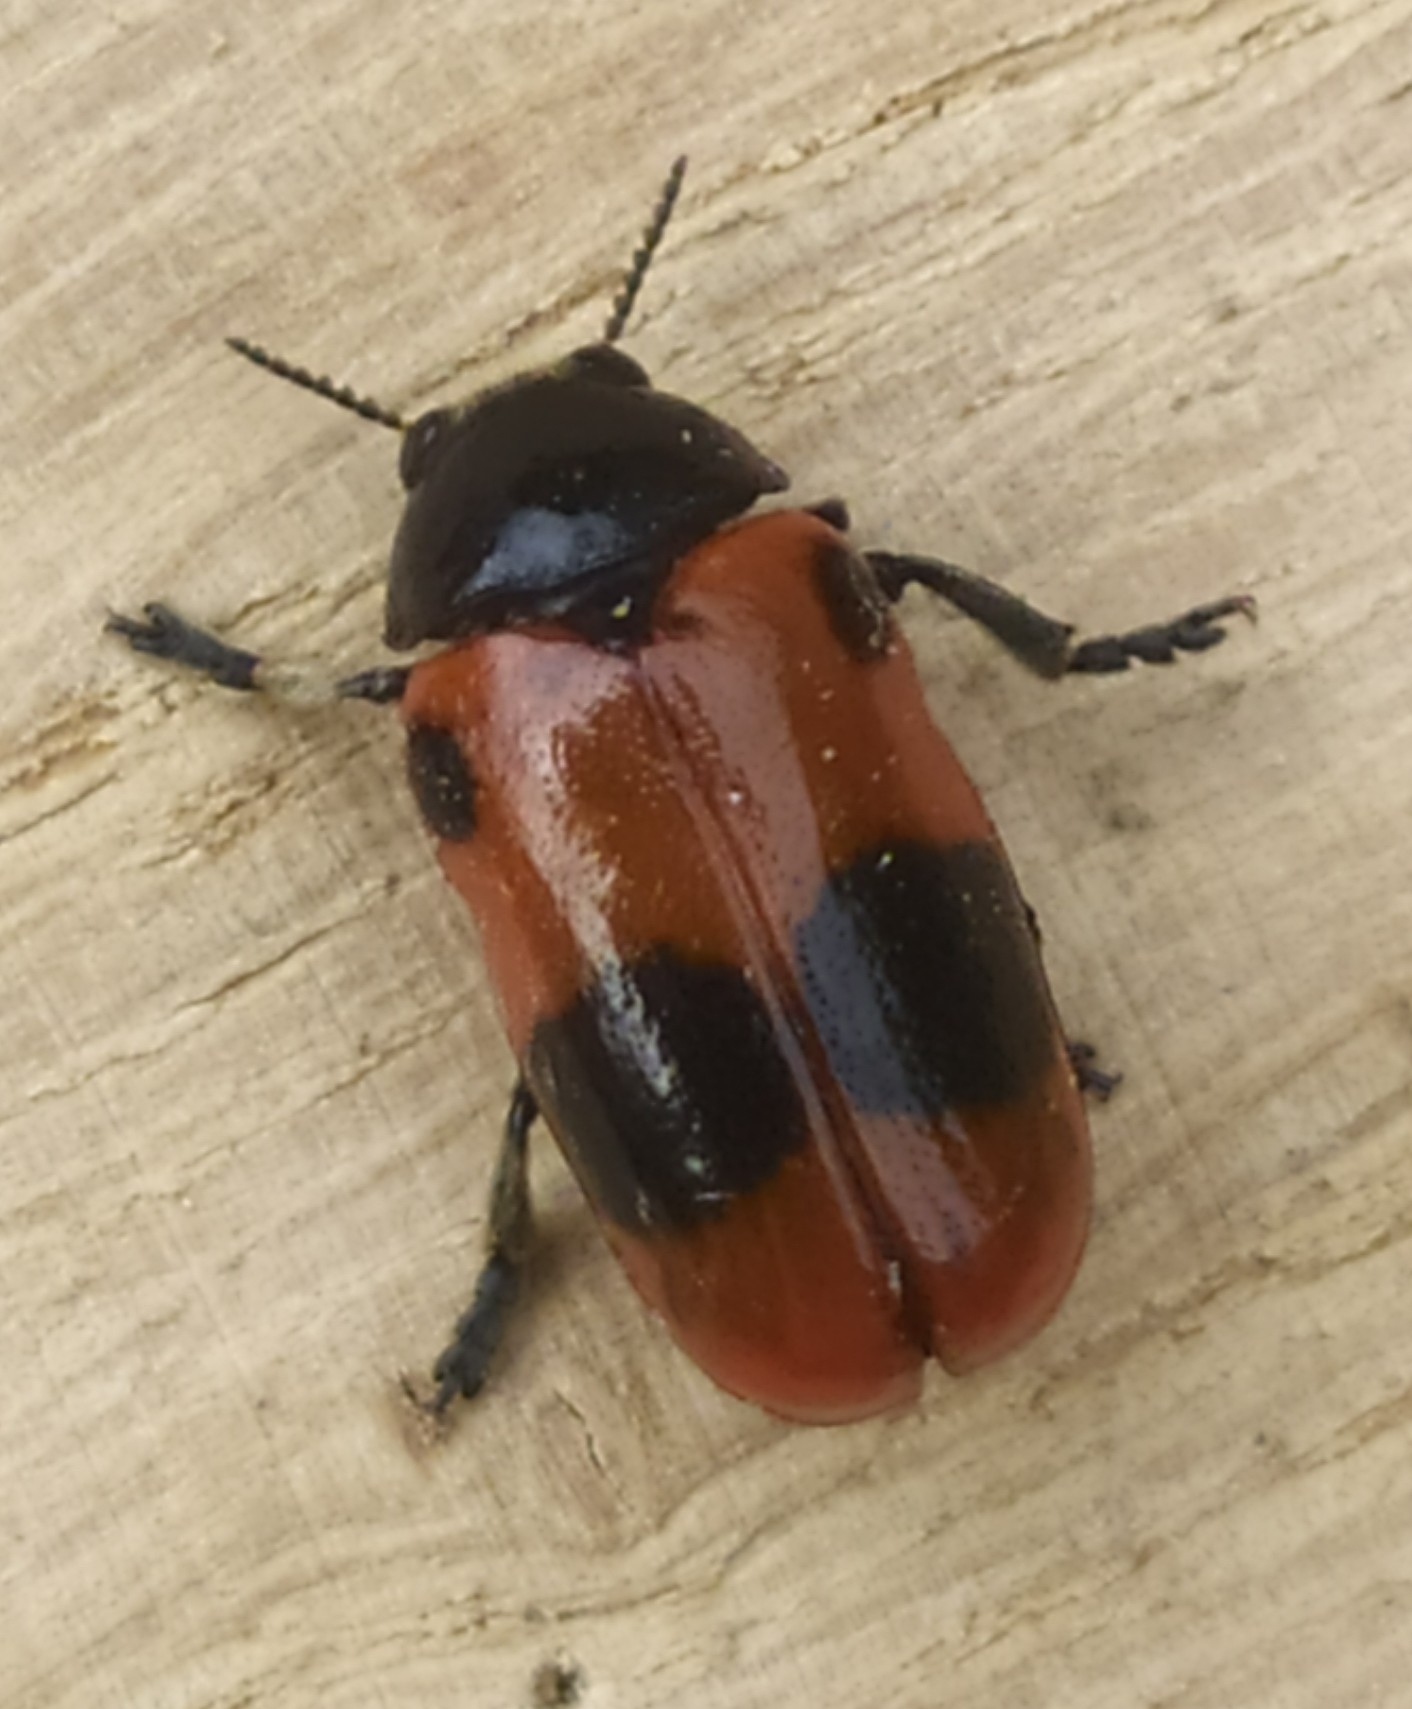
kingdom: Animalia
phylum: Arthropoda
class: Insecta
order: Coleoptera
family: Chrysomelidae
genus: Clytra
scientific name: Clytra laeviuscula
